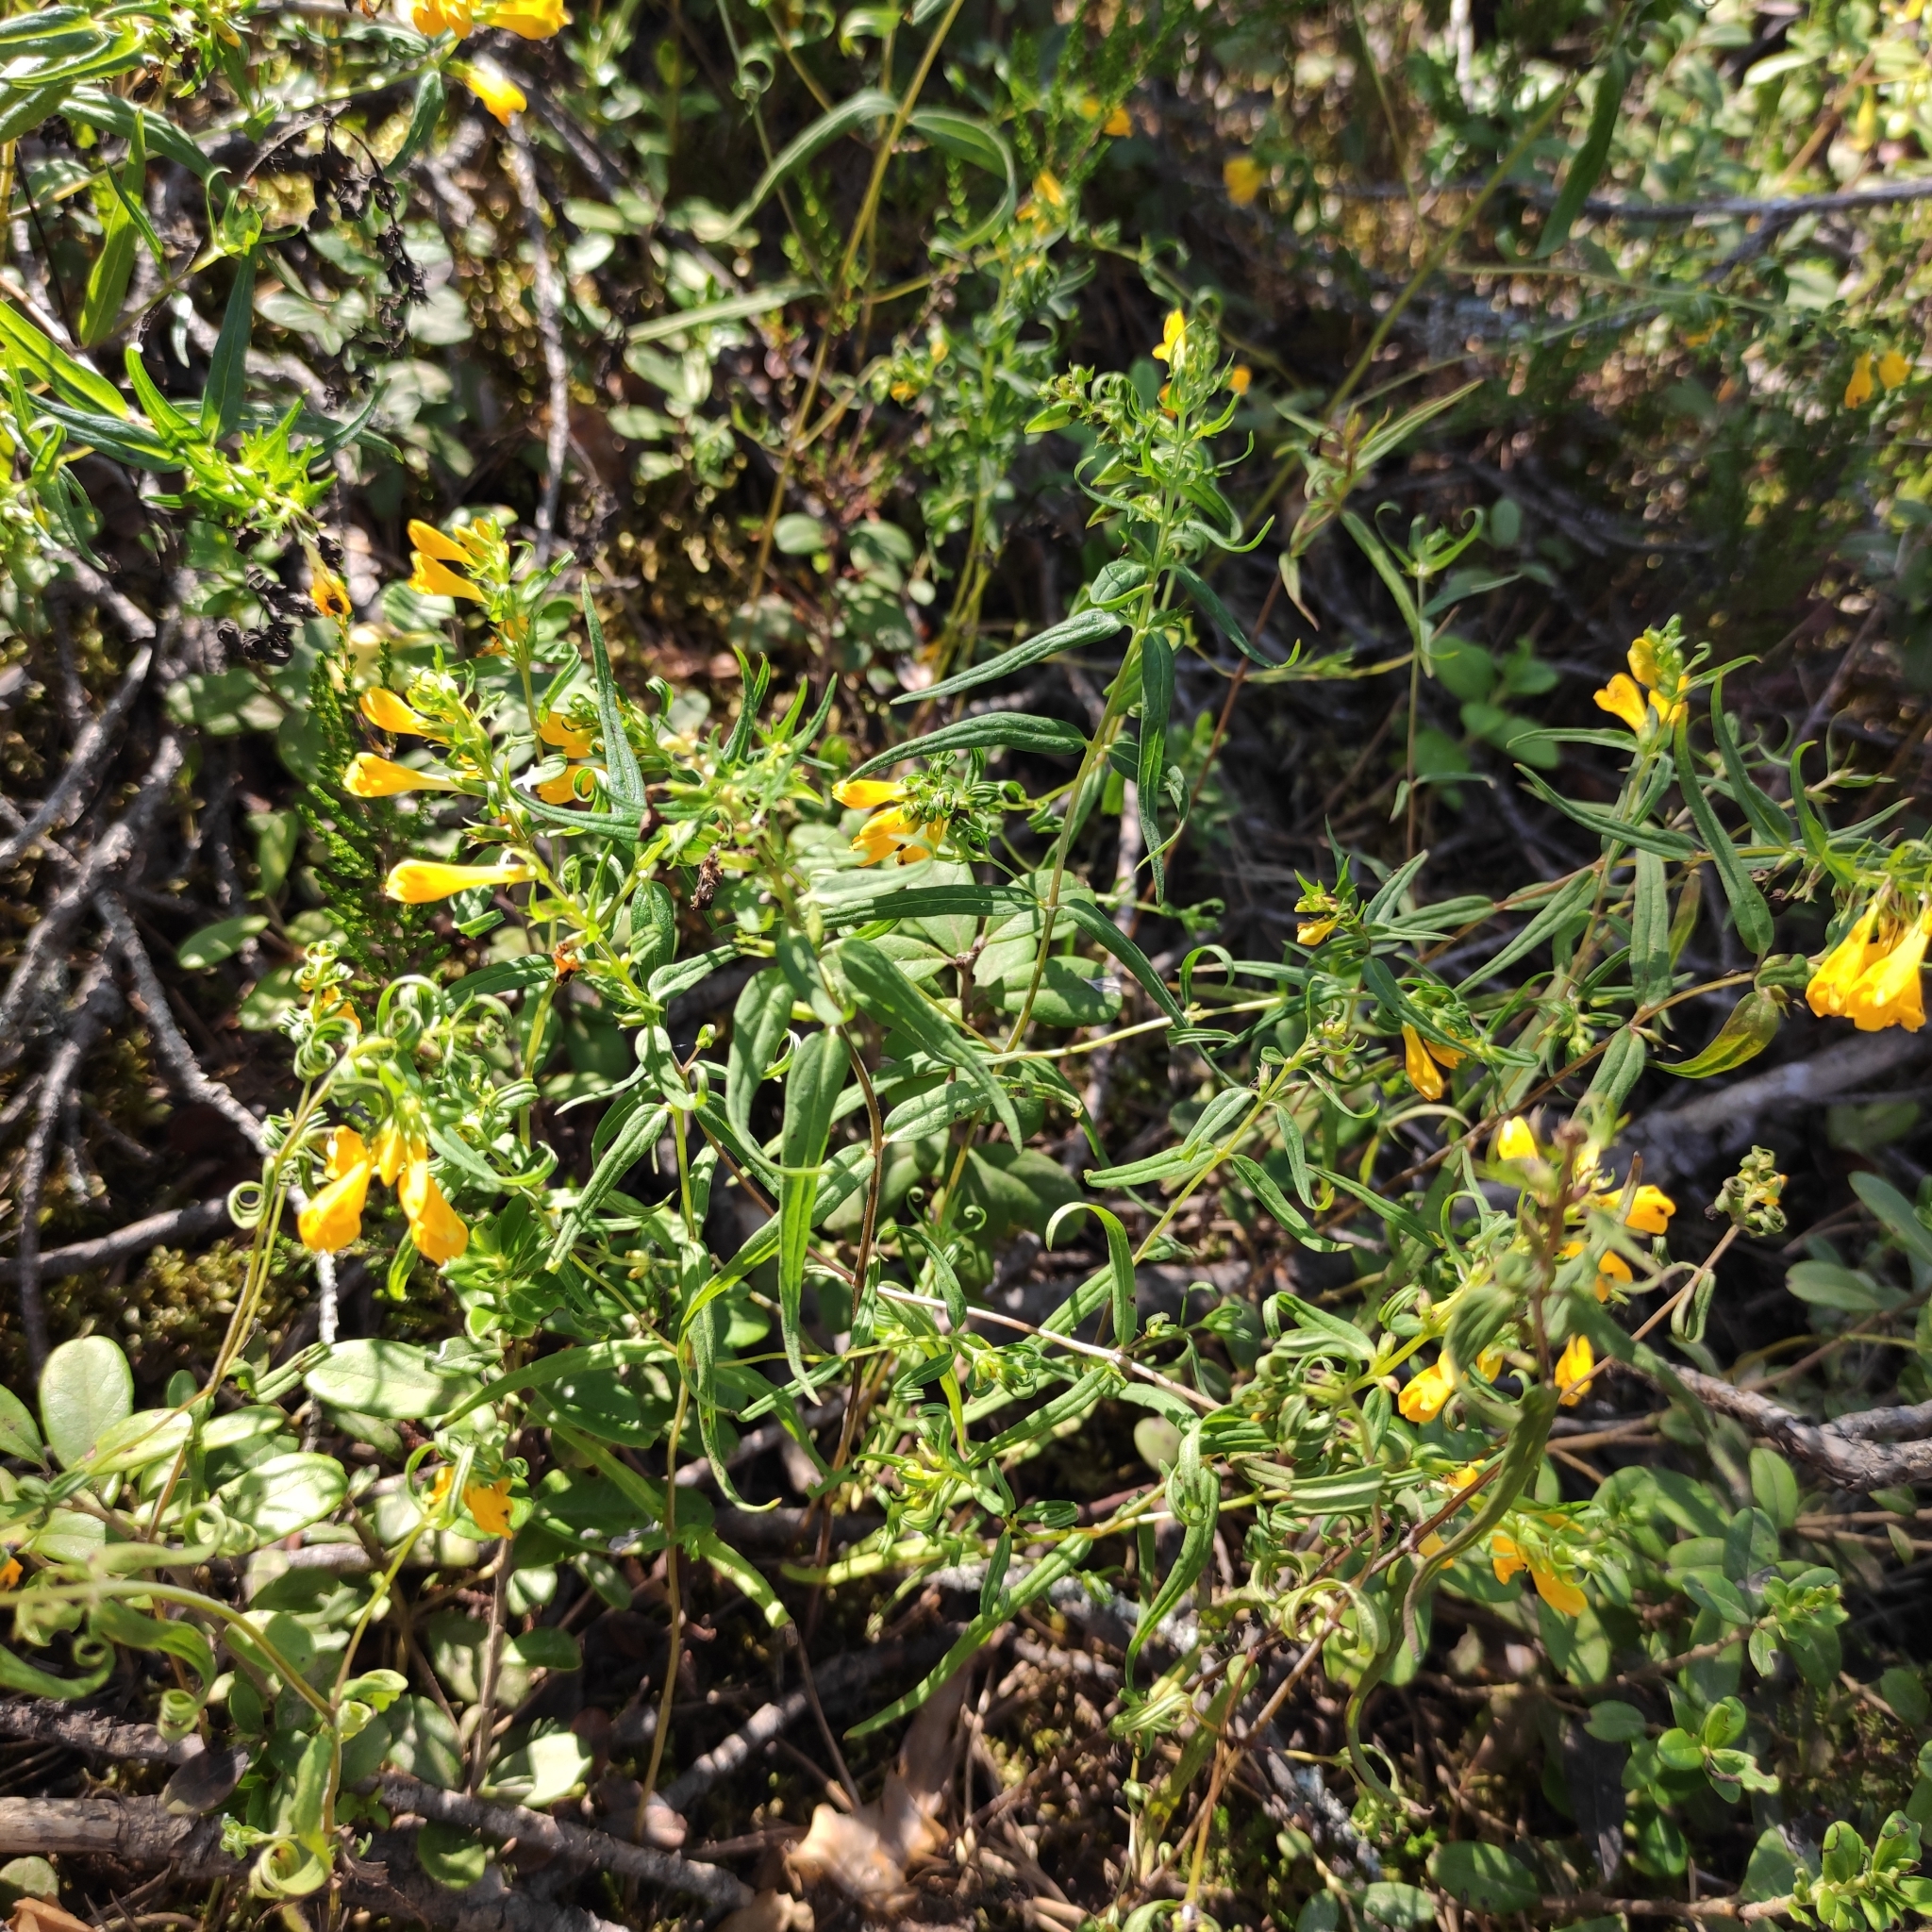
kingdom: Plantae
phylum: Tracheophyta
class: Magnoliopsida
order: Lamiales
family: Orobanchaceae
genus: Melampyrum
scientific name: Melampyrum pratense
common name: Common cow-wheat
